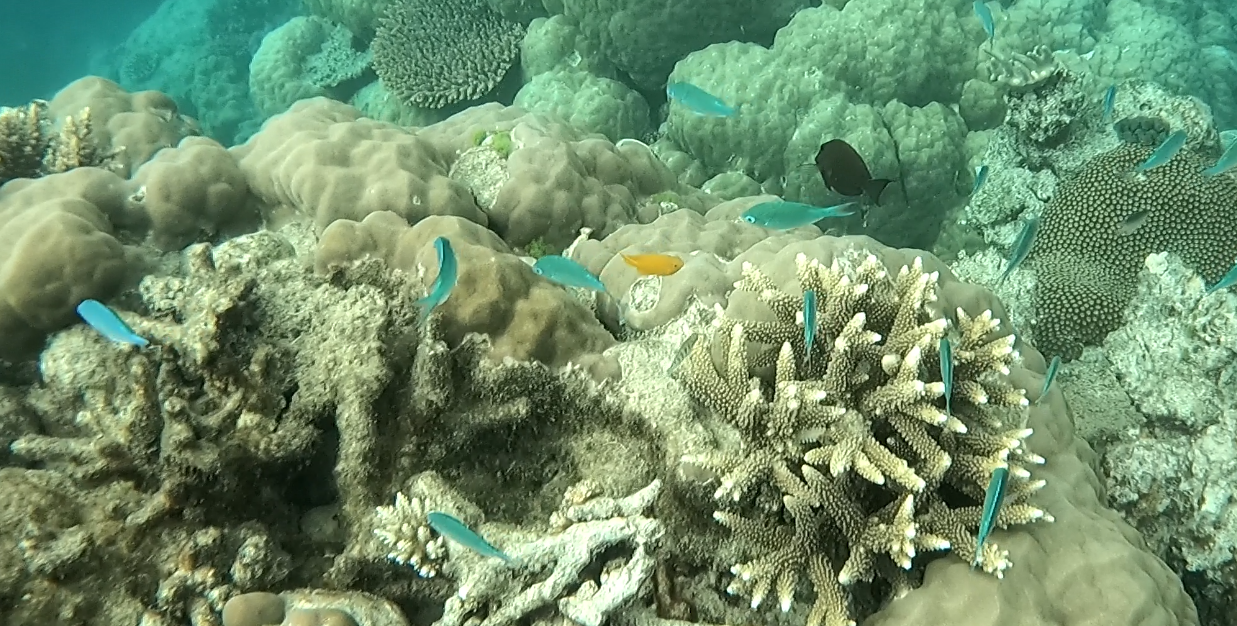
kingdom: Animalia
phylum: Chordata
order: Perciformes
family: Pomacentridae
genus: Chromis
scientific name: Chromis atripectoralis
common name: Black-axil chromis
